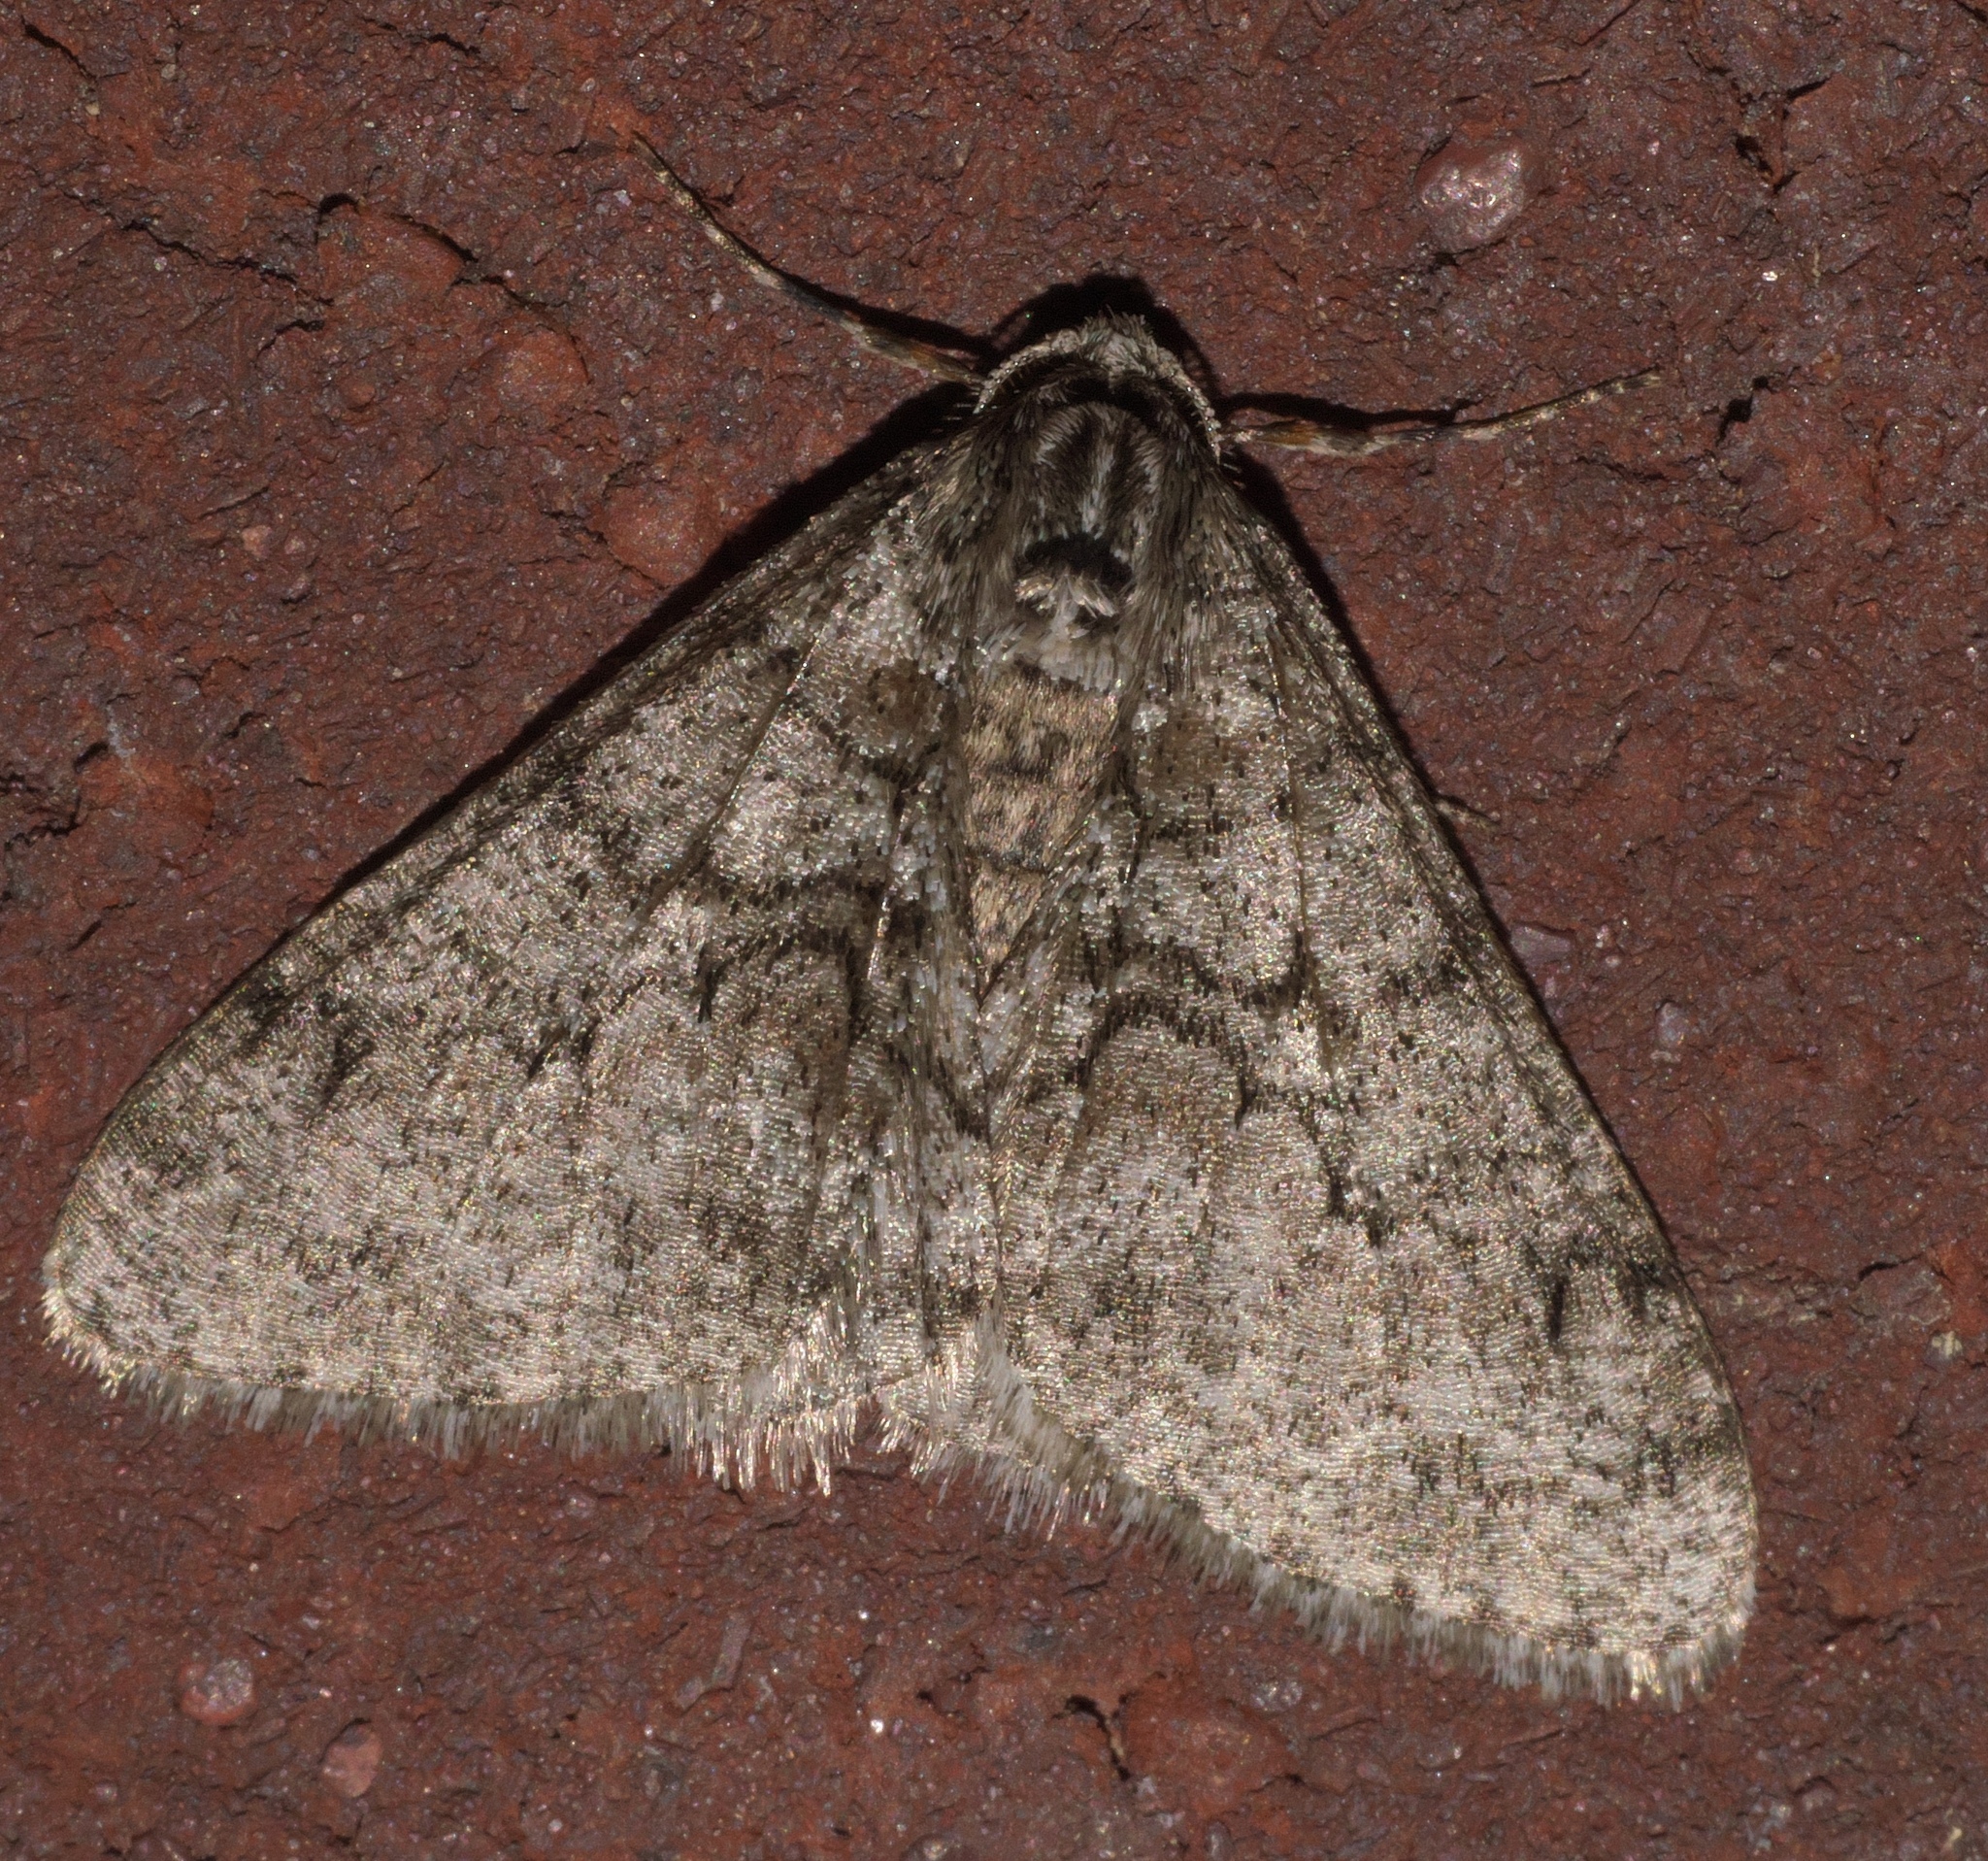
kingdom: Animalia
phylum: Arthropoda
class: Insecta
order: Lepidoptera
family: Geometridae
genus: Phigalia
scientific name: Phigalia strigataria
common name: Small phigalia
